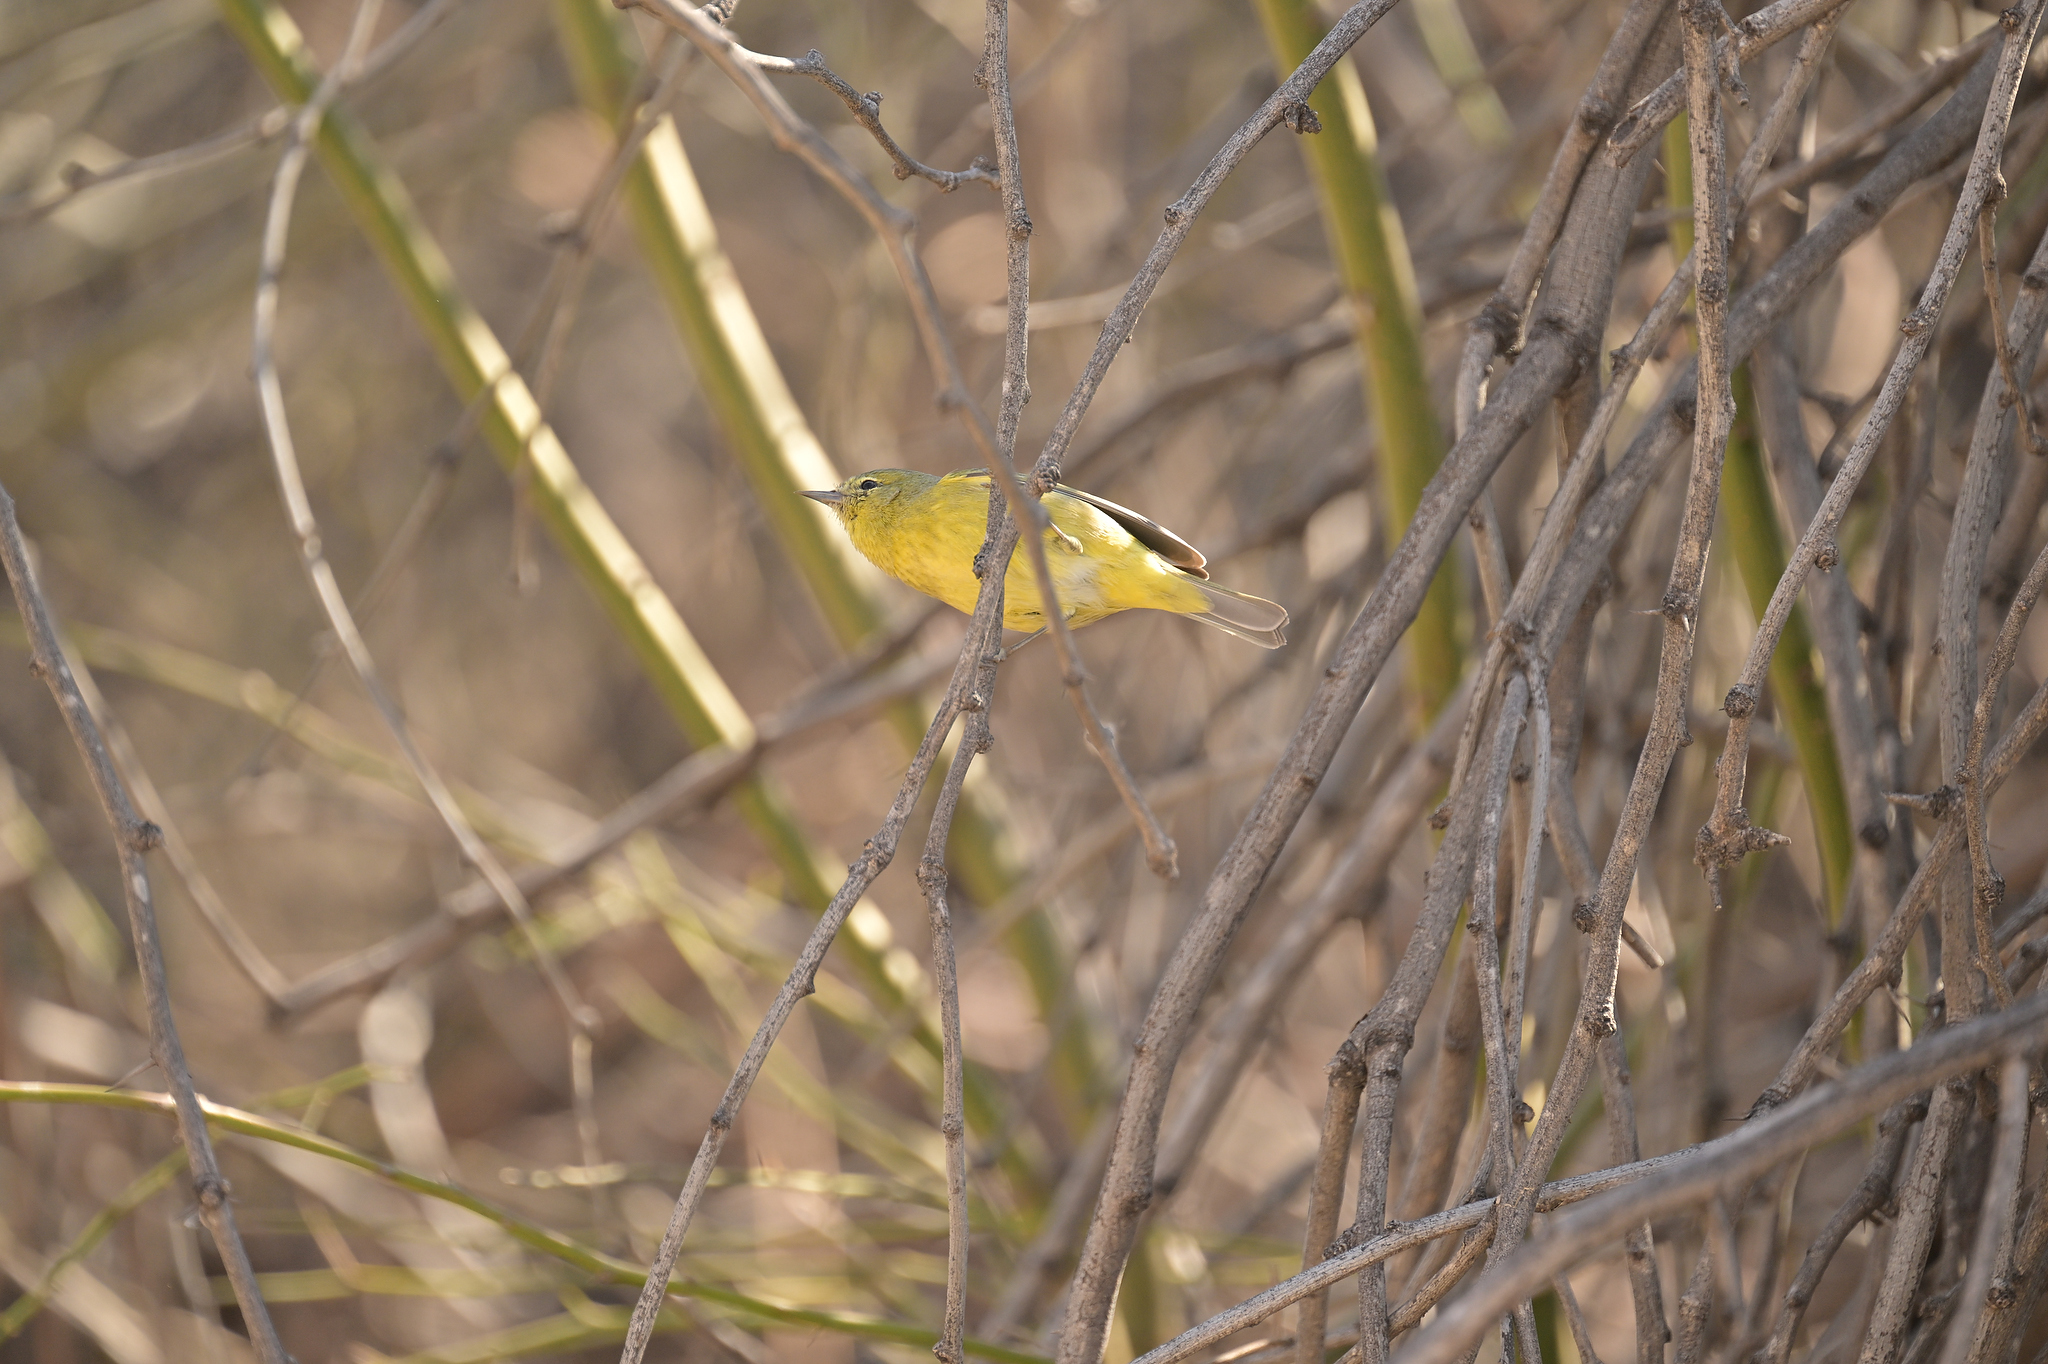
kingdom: Animalia
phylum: Chordata
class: Aves
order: Passeriformes
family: Parulidae
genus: Leiothlypis
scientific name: Leiothlypis celata
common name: Orange-crowned warbler
